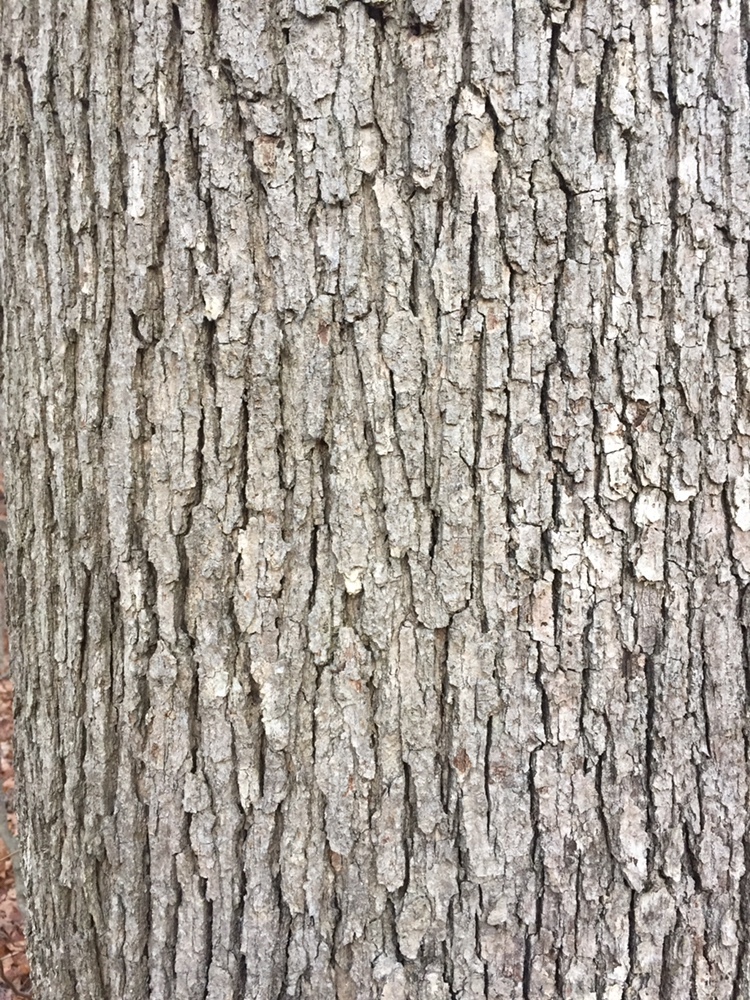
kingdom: Plantae
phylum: Tracheophyta
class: Magnoliopsida
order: Fagales
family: Fagaceae
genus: Quercus
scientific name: Quercus alba
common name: White oak
